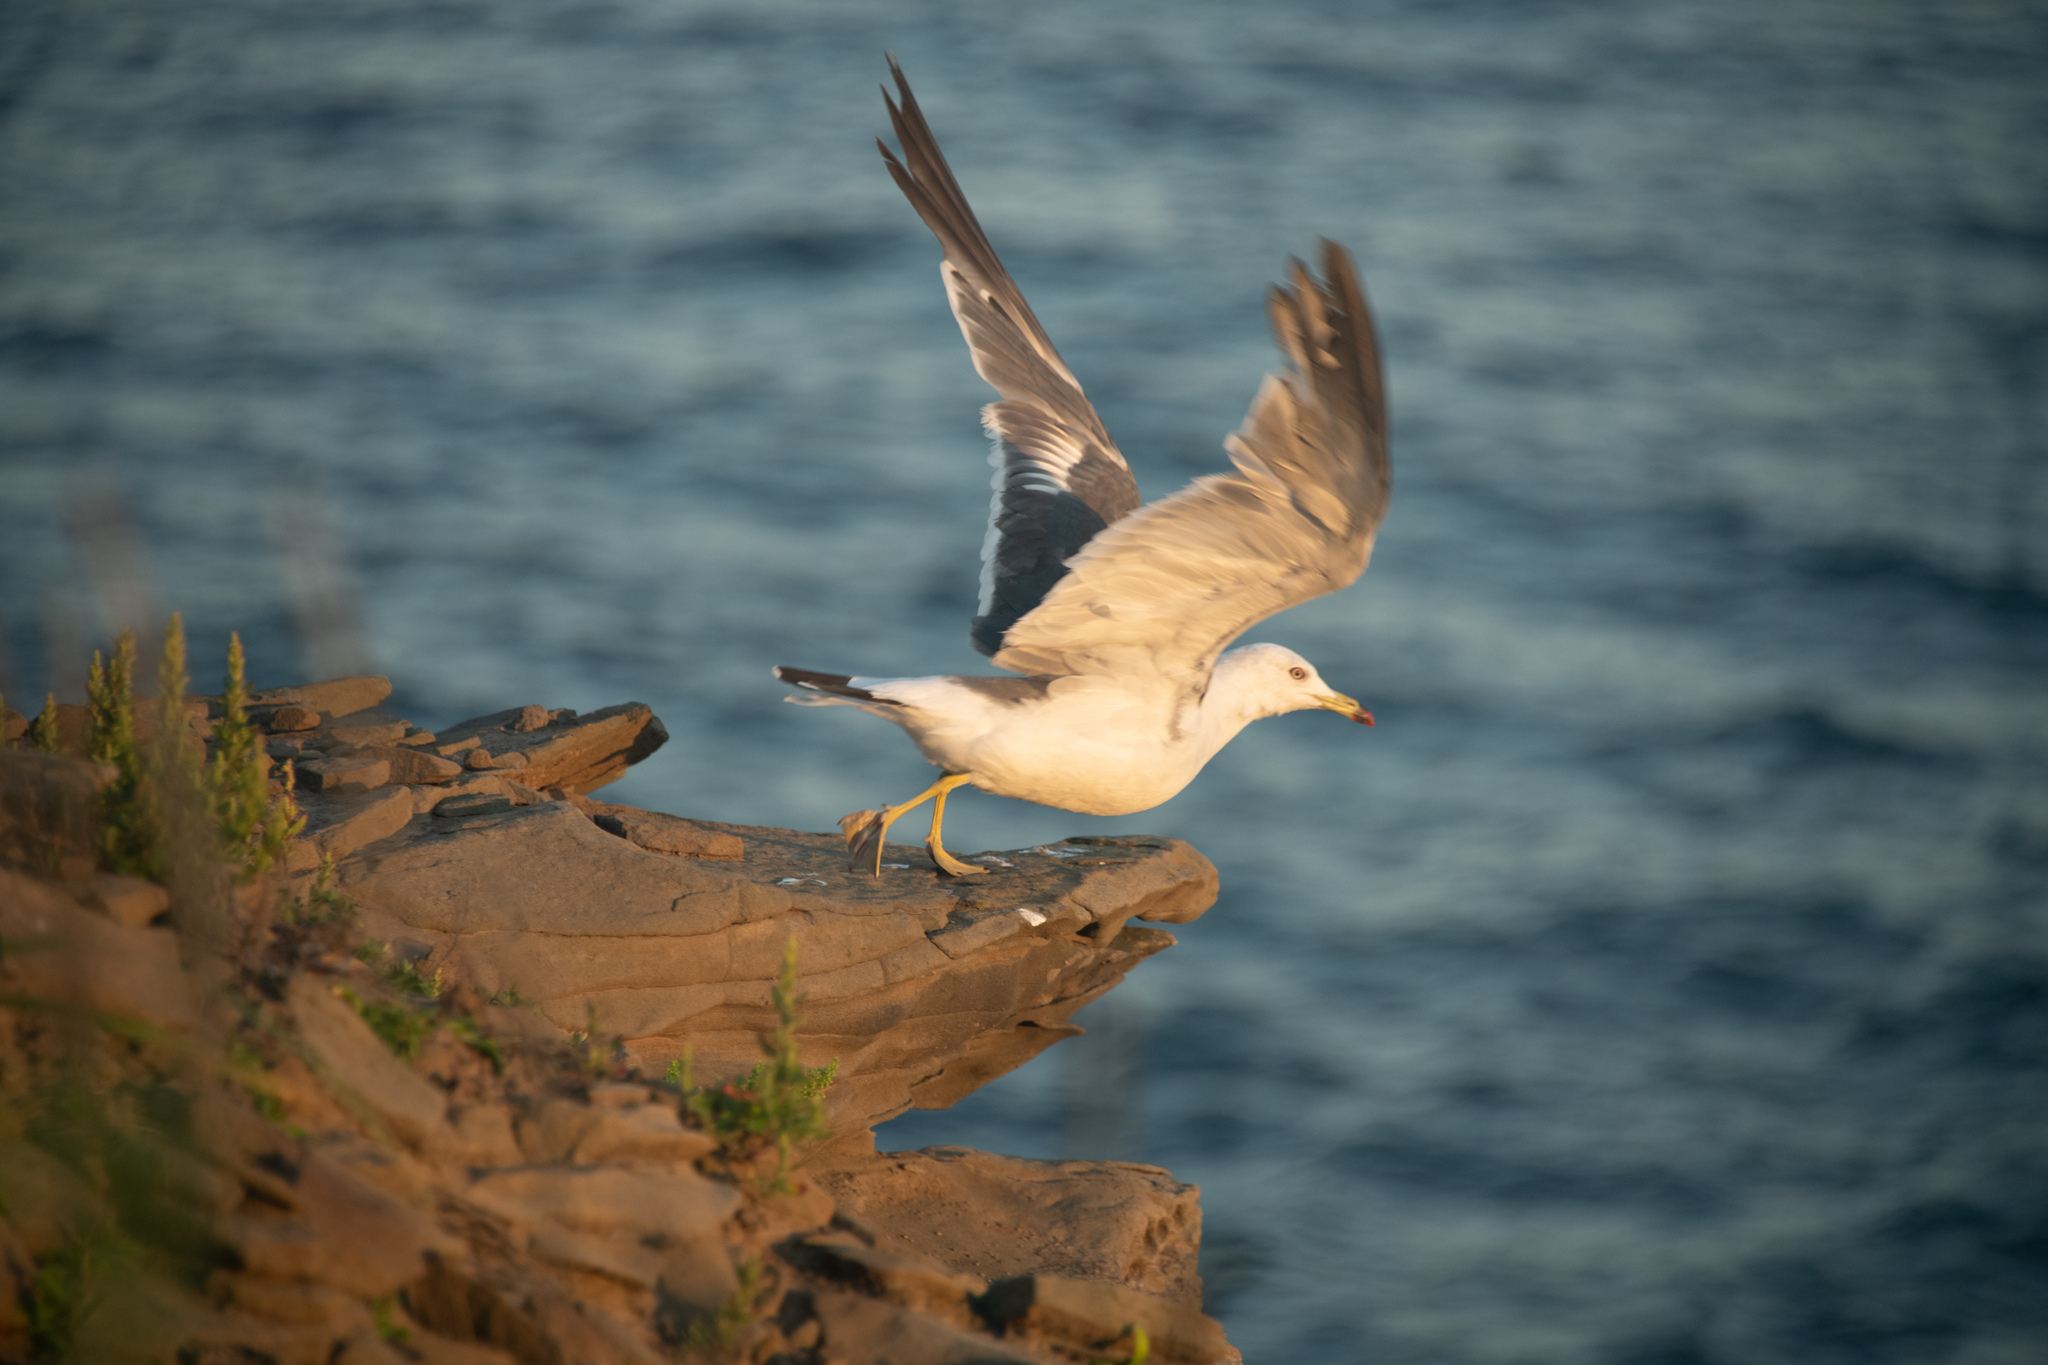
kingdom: Animalia
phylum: Chordata
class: Aves
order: Charadriiformes
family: Laridae
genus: Larus
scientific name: Larus crassirostris
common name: Black-tailed gull
